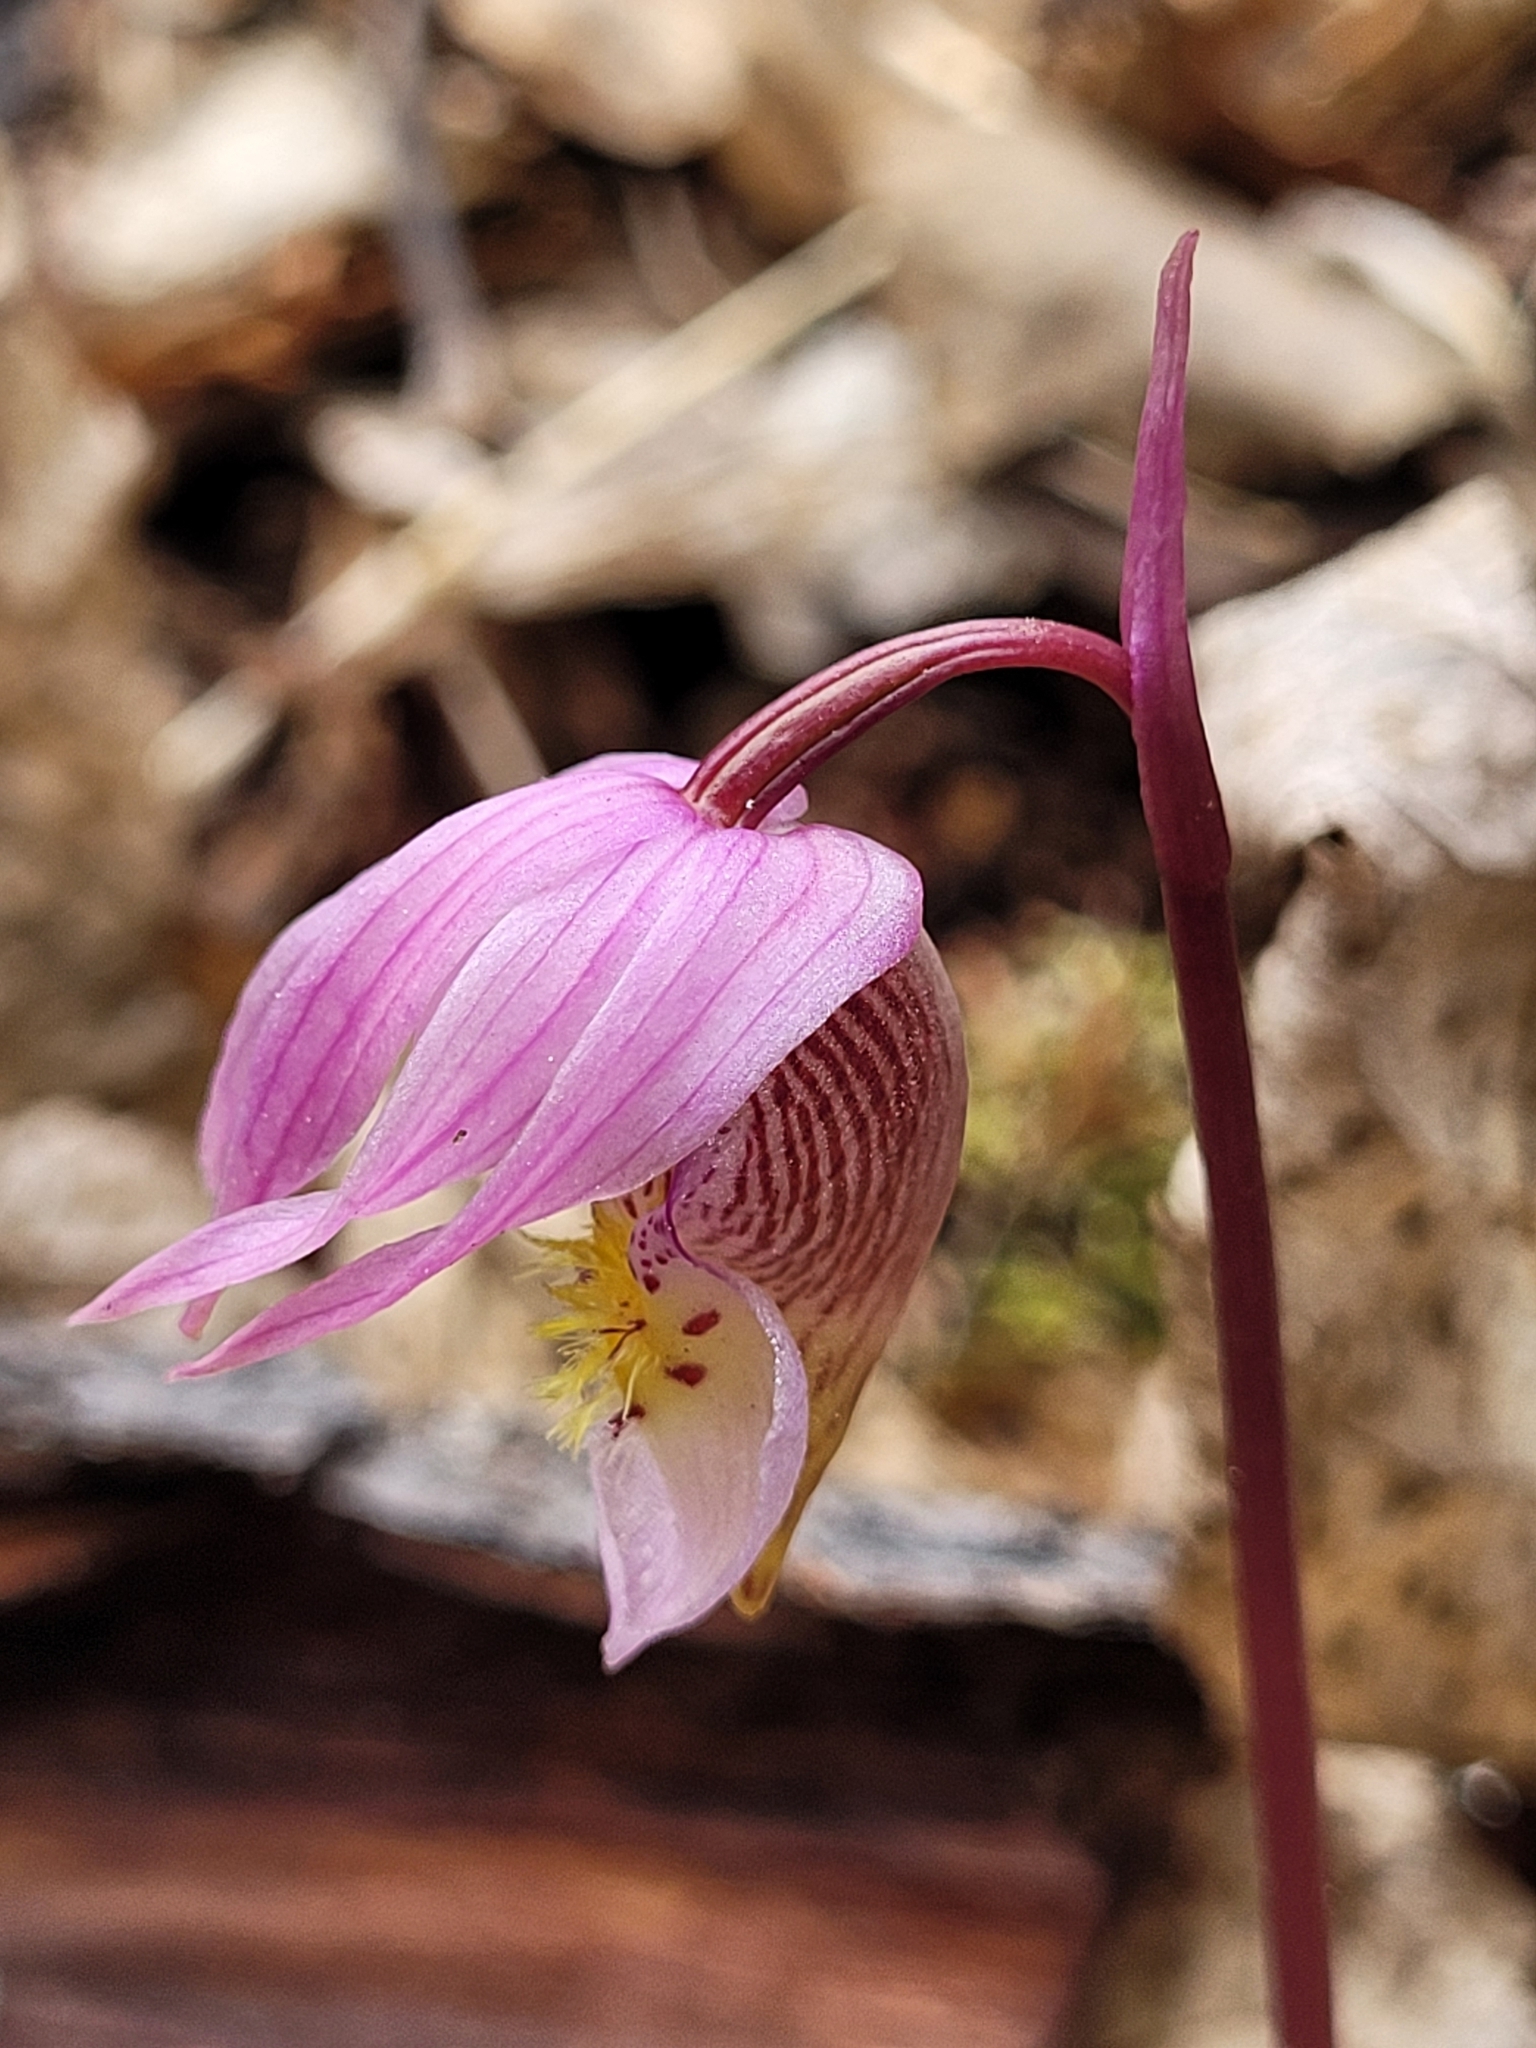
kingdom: Plantae
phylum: Tracheophyta
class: Liliopsida
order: Asparagales
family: Orchidaceae
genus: Calypso
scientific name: Calypso bulbosa
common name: Calypso
